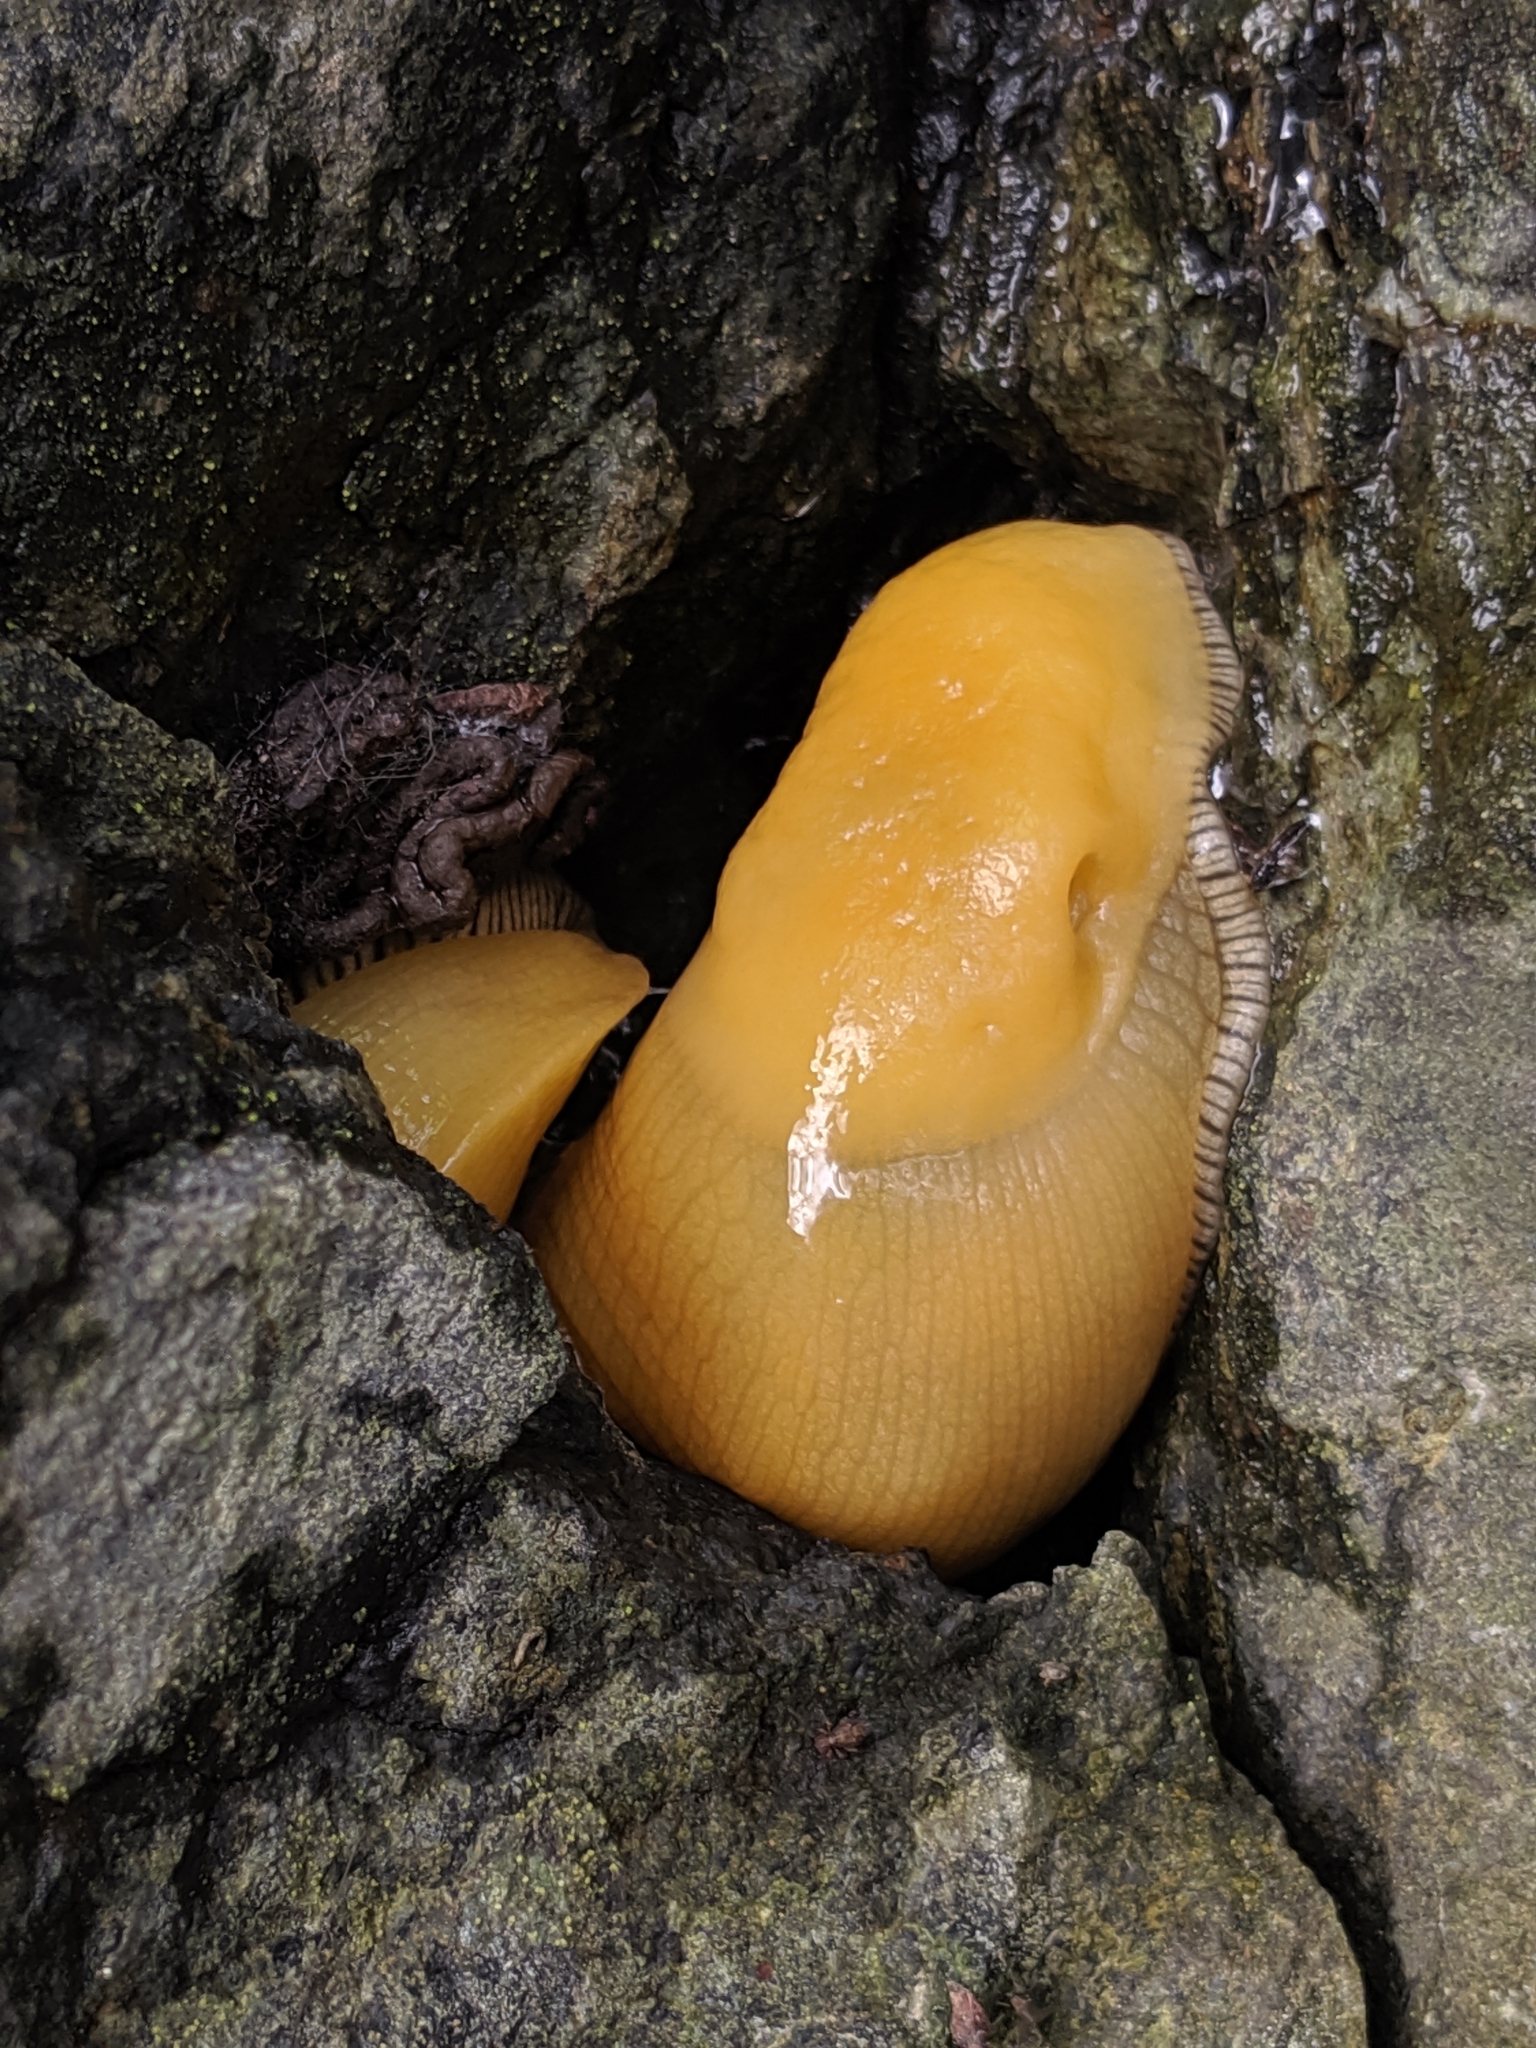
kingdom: Animalia
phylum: Mollusca
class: Gastropoda
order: Stylommatophora
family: Ariolimacidae
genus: Ariolimax
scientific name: Ariolimax stramineus
